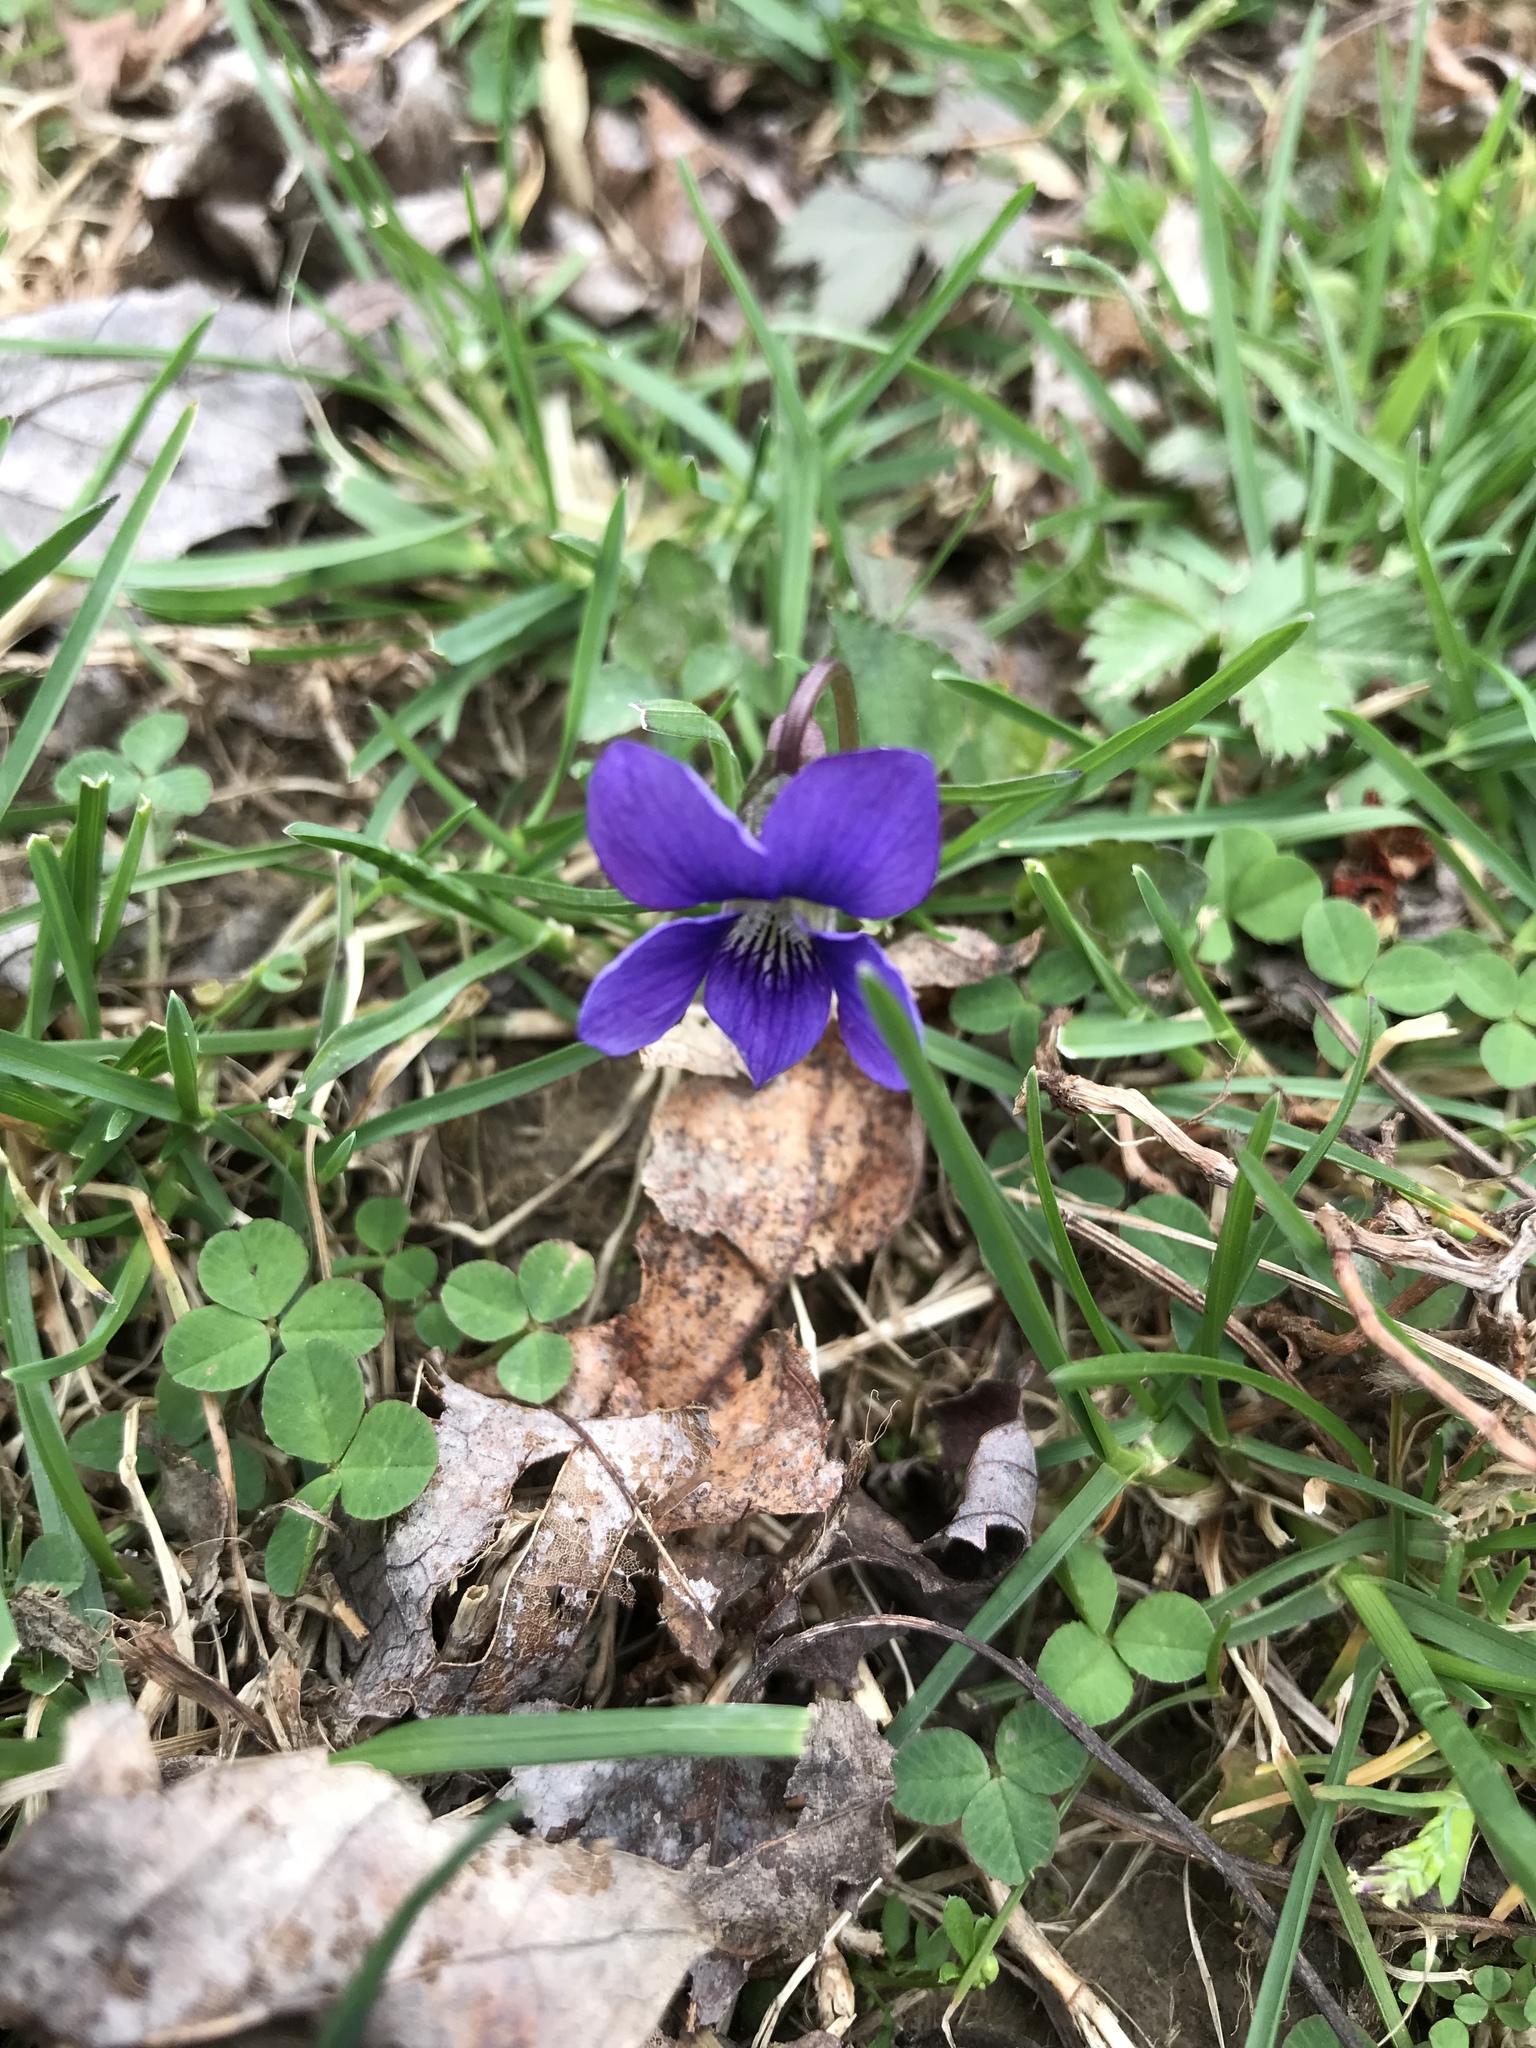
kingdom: Plantae
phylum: Tracheophyta
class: Magnoliopsida
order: Malpighiales
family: Violaceae
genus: Viola
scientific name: Viola sororia
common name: Dooryard violet
